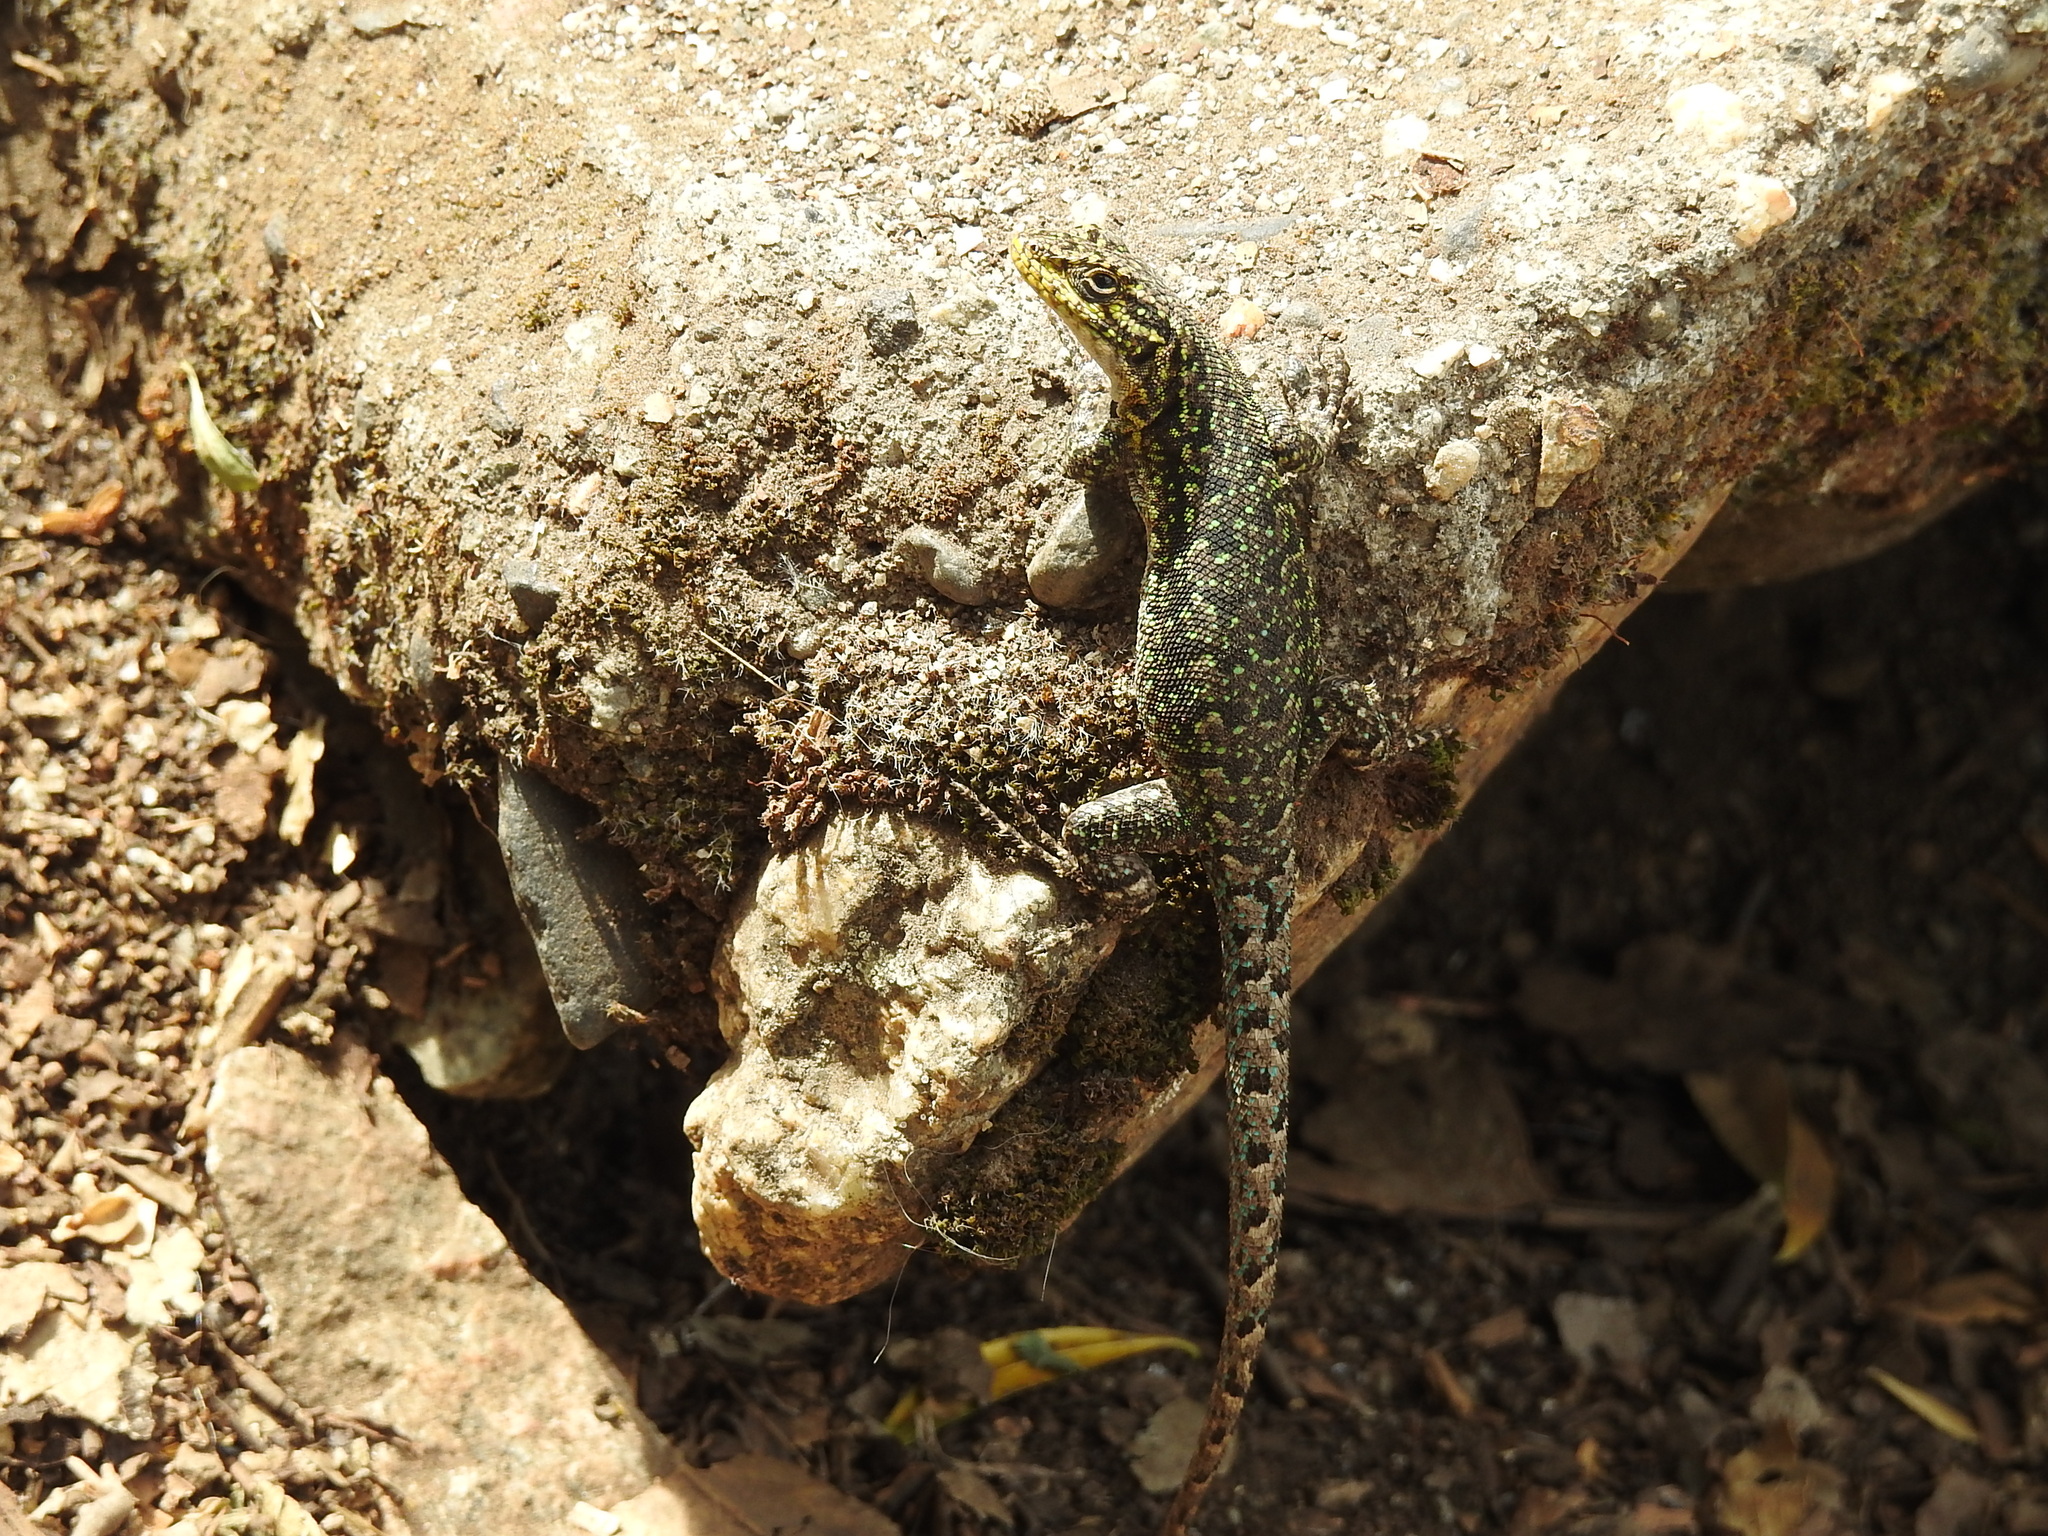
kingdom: Animalia
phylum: Chordata
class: Squamata
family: Liolaemidae
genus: Liolaemus
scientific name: Liolaemus tenuis
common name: Thin tree iguana
